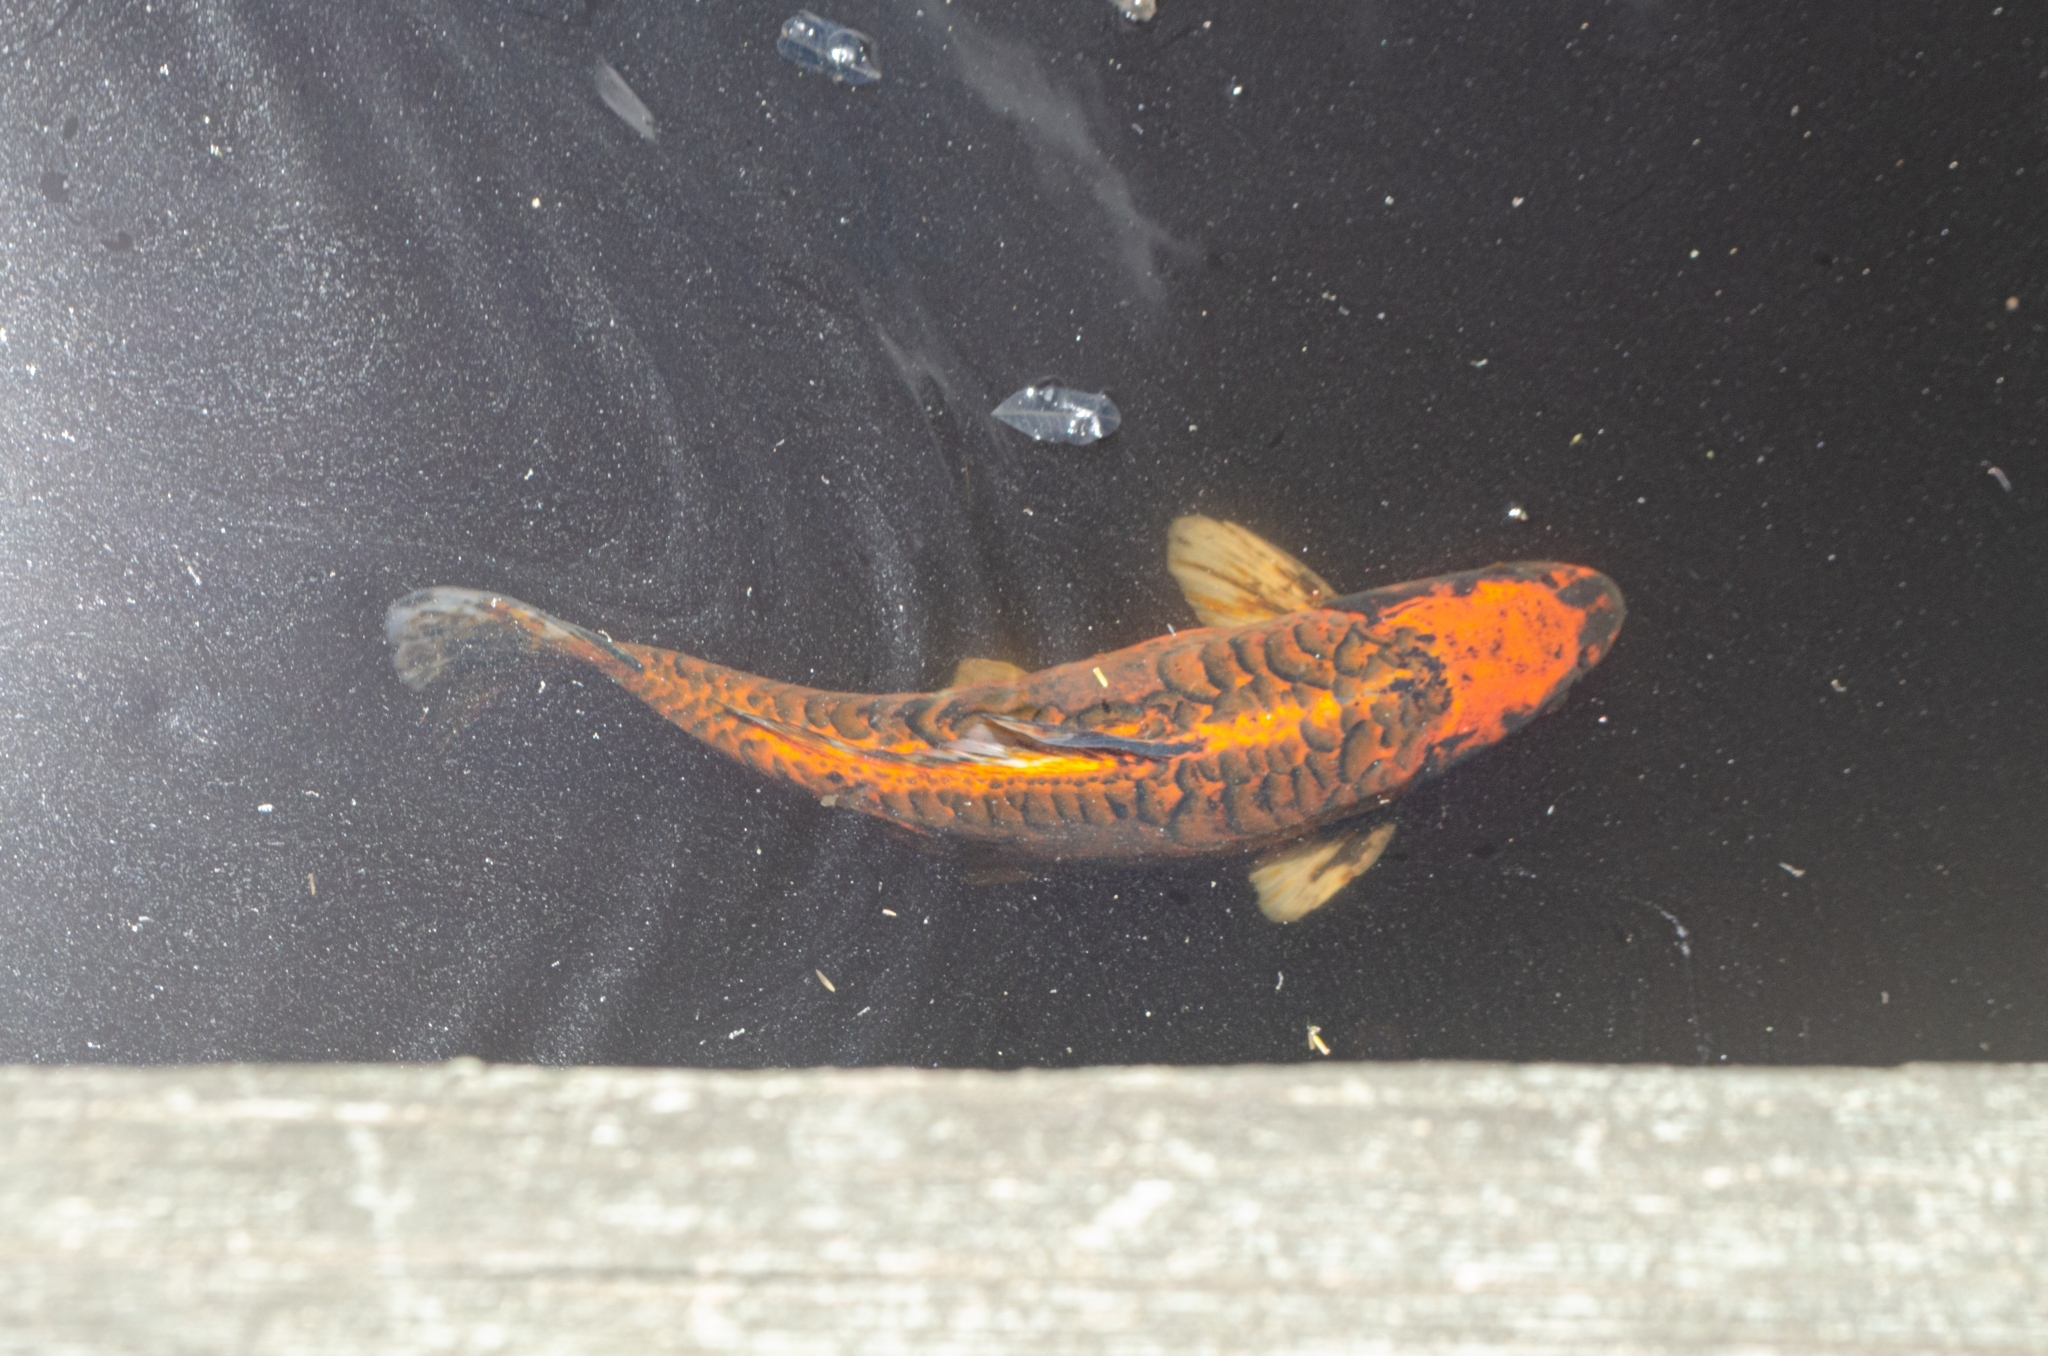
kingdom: Animalia
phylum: Chordata
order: Cypriniformes
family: Cyprinidae
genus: Cyprinus
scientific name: Cyprinus rubrofuscus
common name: Koi
